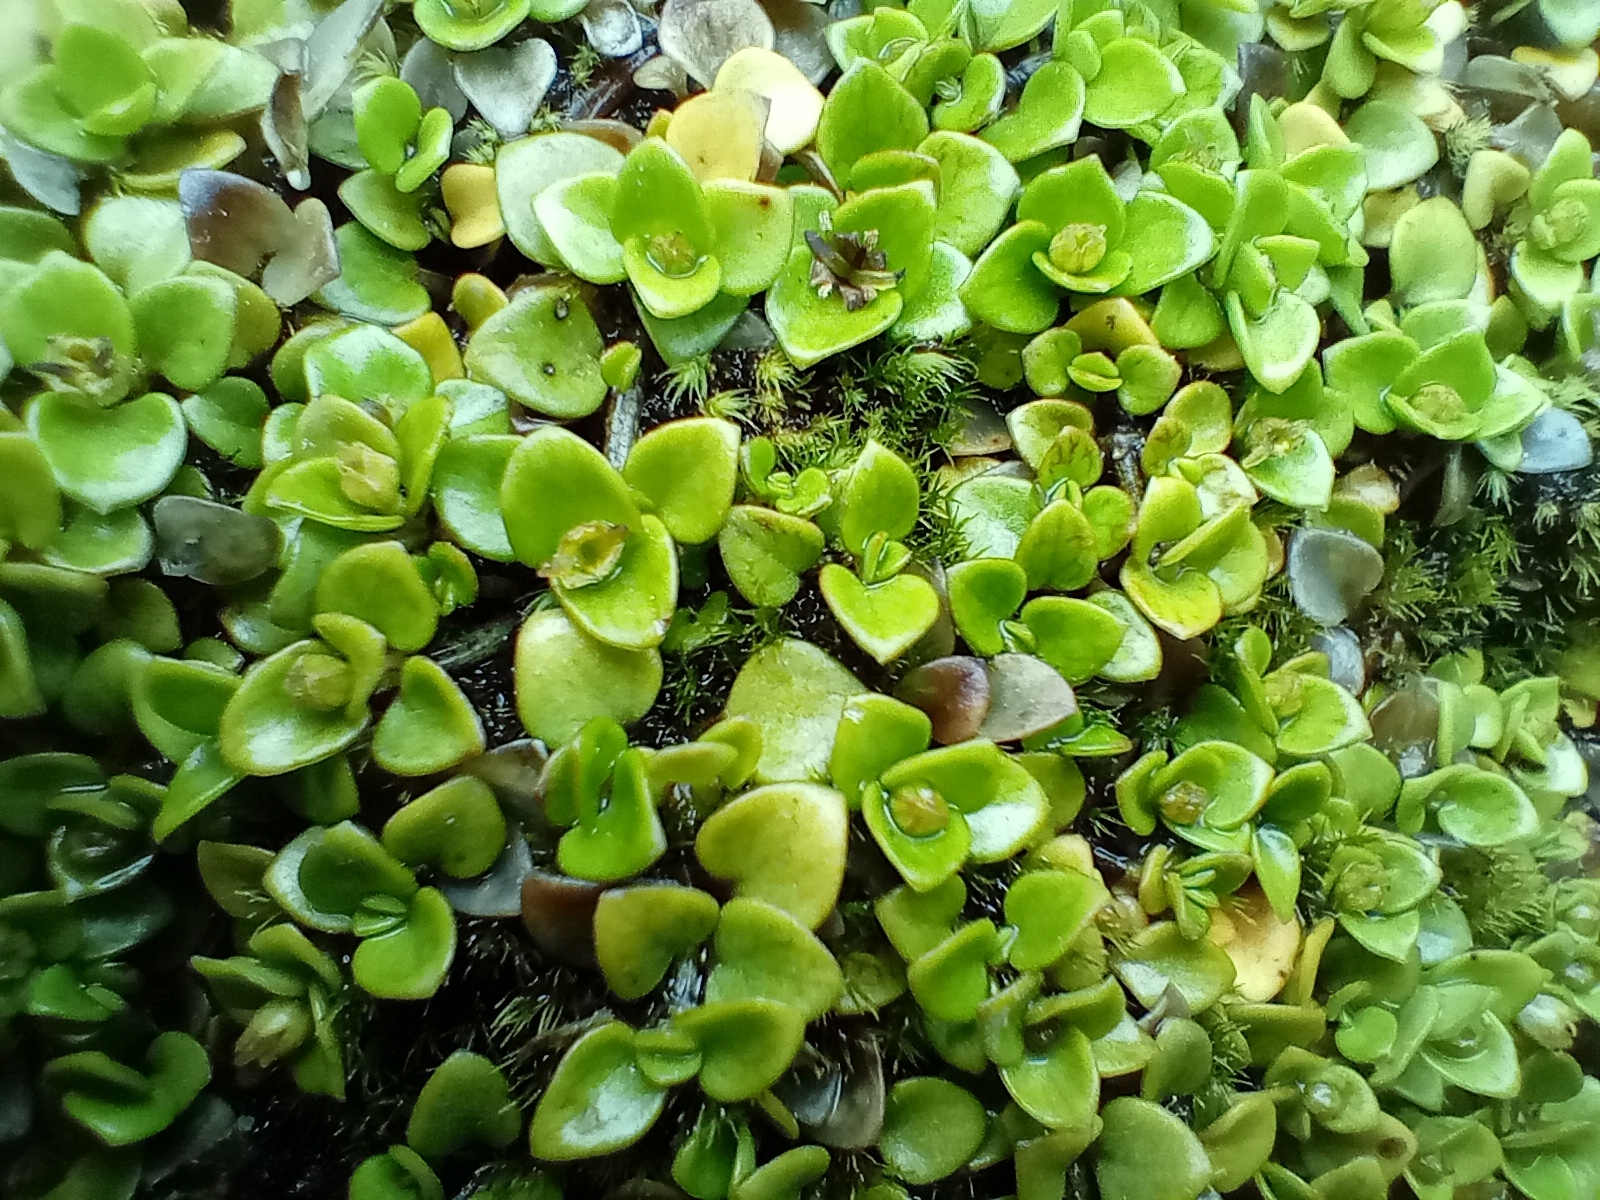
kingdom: Plantae
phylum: Tracheophyta
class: Magnoliopsida
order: Gentianales
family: Rubiaceae
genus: Nertera
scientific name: Nertera granadensis
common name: Beadplant
